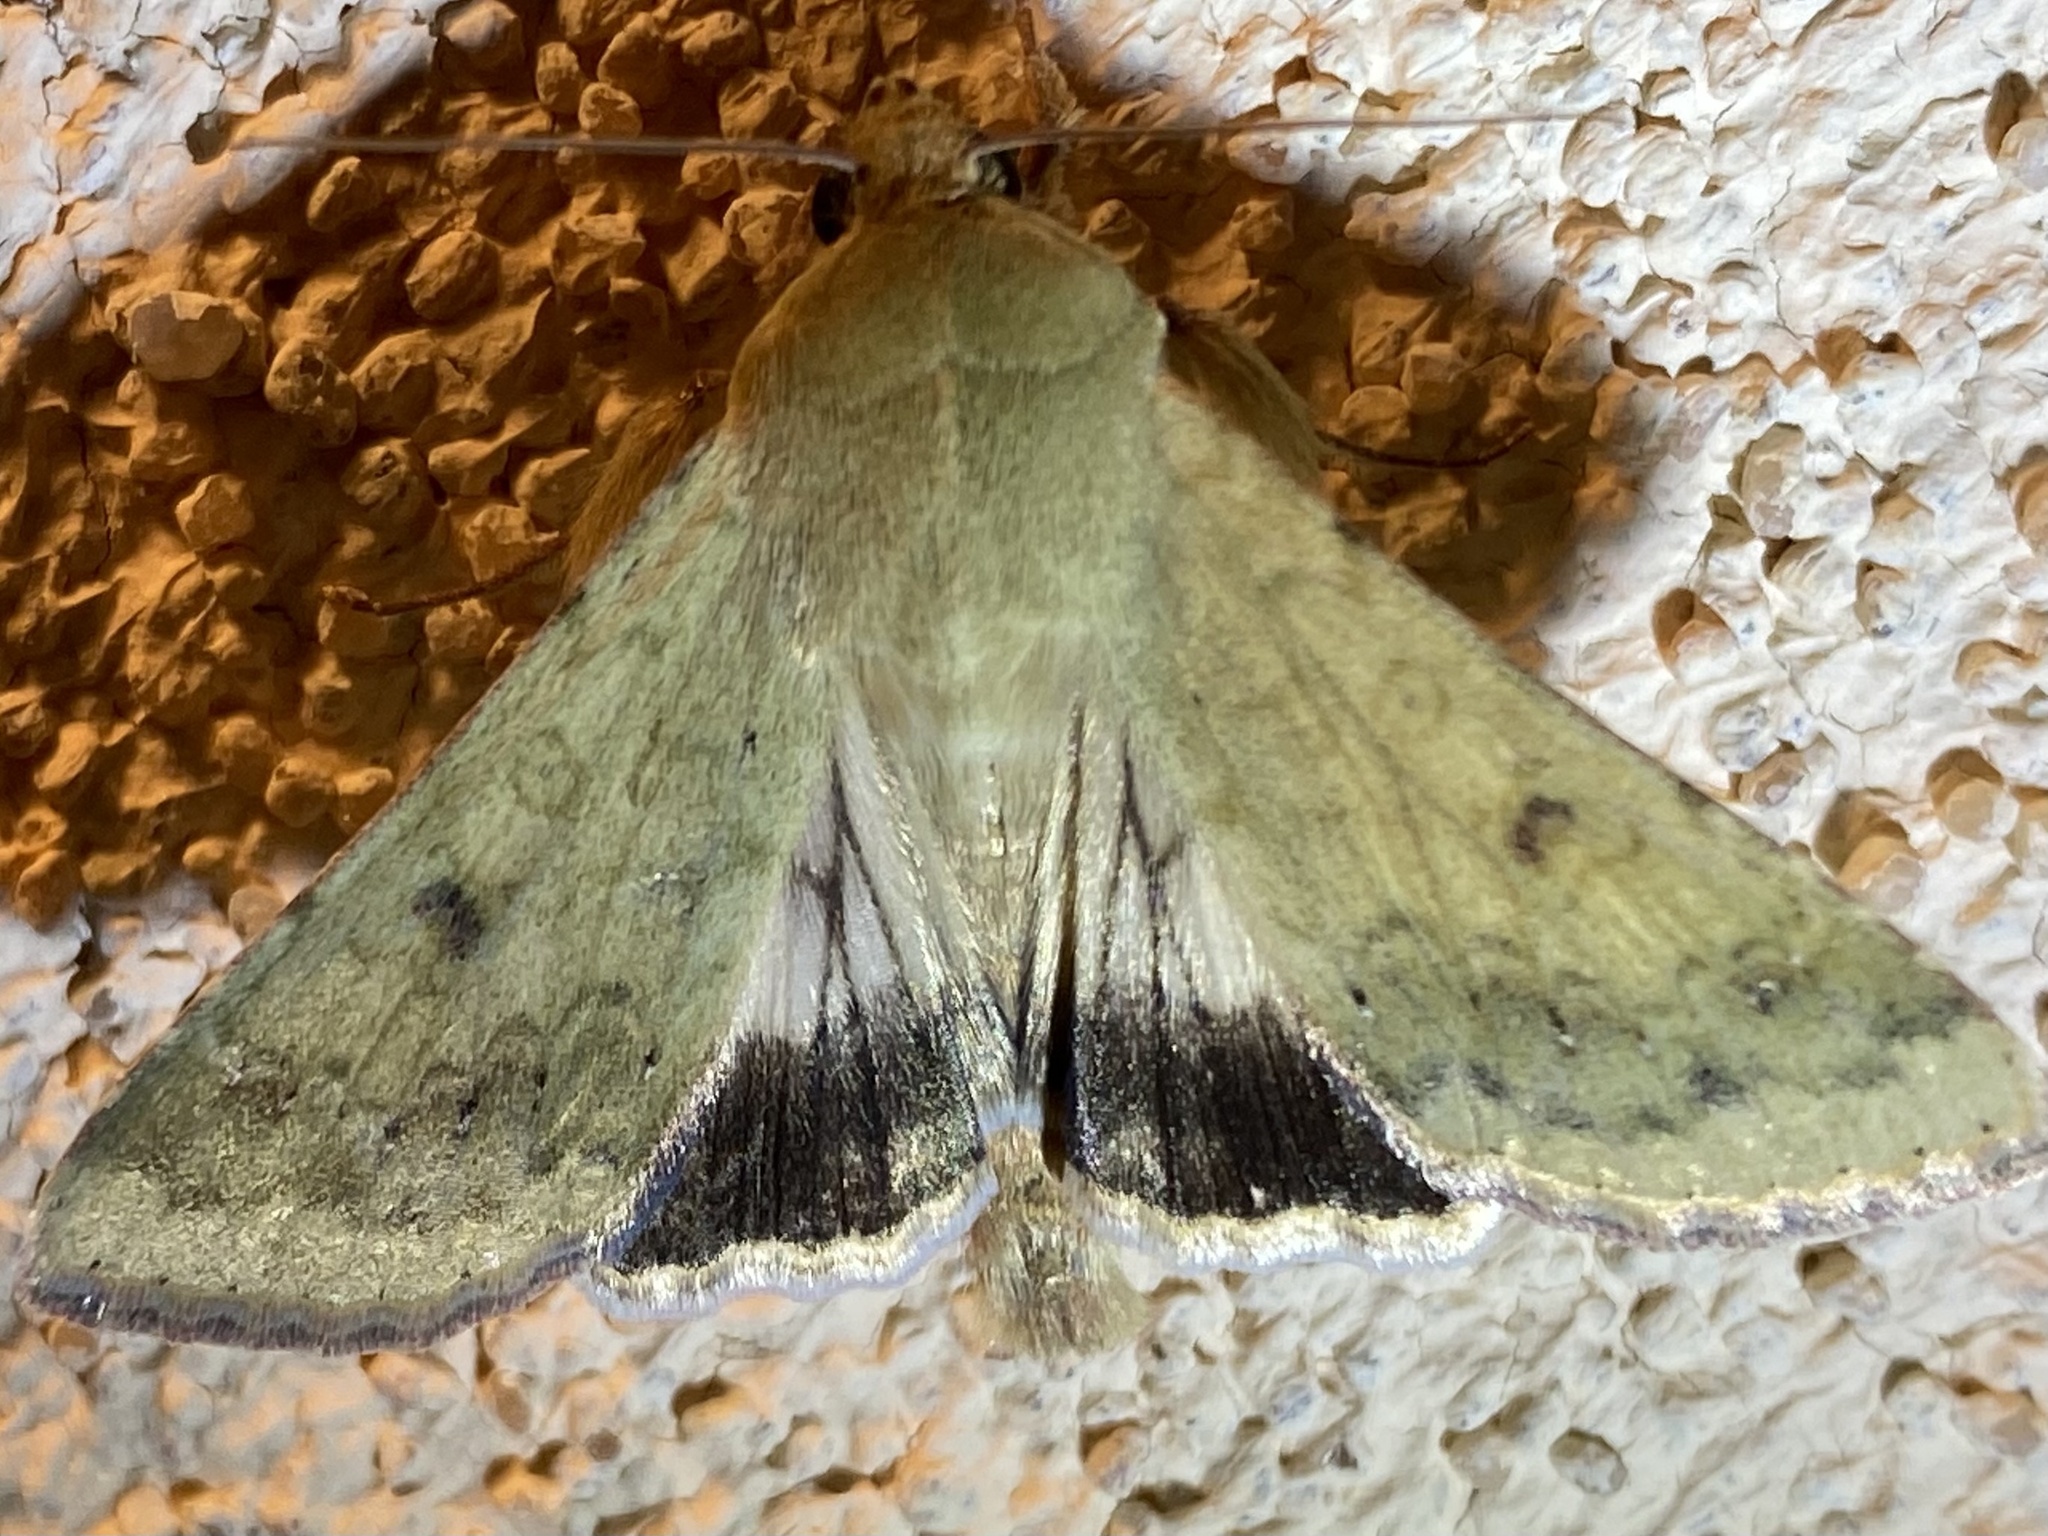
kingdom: Animalia
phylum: Arthropoda
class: Insecta
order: Lepidoptera
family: Noctuidae
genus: Helicoverpa
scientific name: Helicoverpa zea
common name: Bollworm
